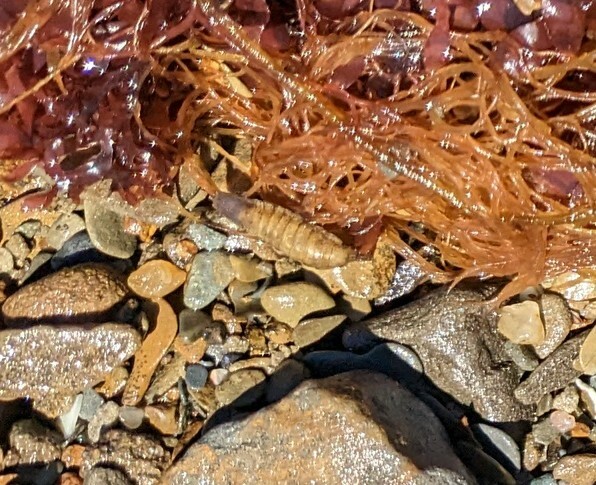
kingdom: Animalia
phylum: Arthropoda
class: Malacostraca
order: Isopoda
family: Idoteidae
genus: Idotea
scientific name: Idotea balthica
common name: Baltic isopod
